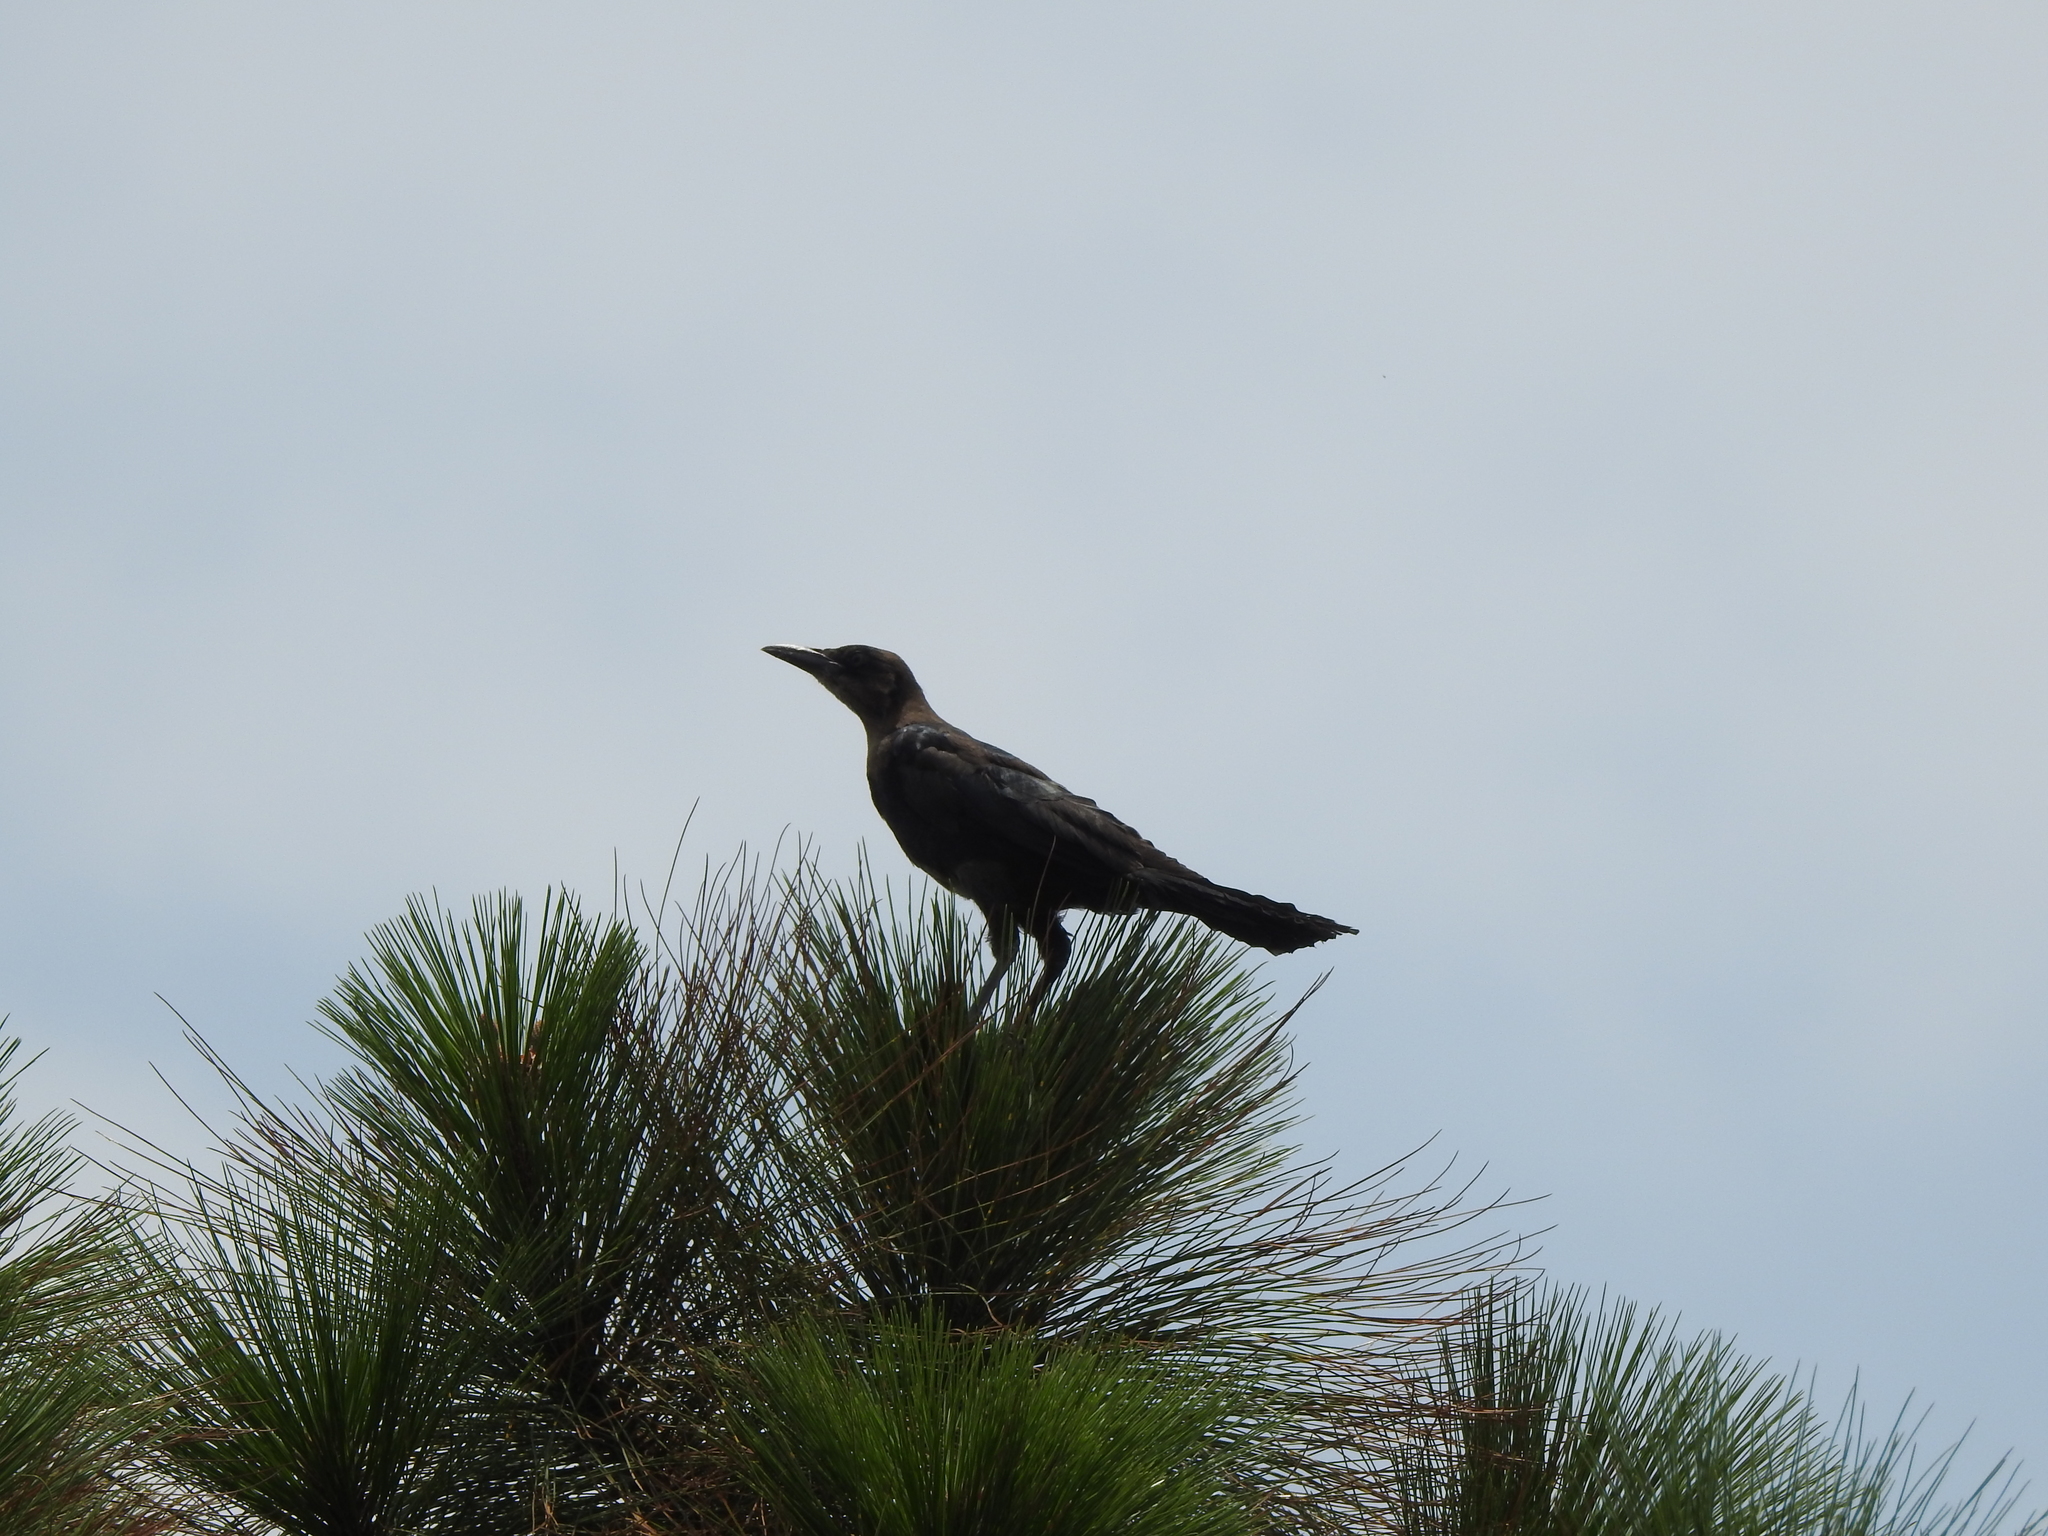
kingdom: Animalia
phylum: Chordata
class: Aves
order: Passeriformes
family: Icteridae
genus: Quiscalus
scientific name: Quiscalus mexicanus
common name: Great-tailed grackle
